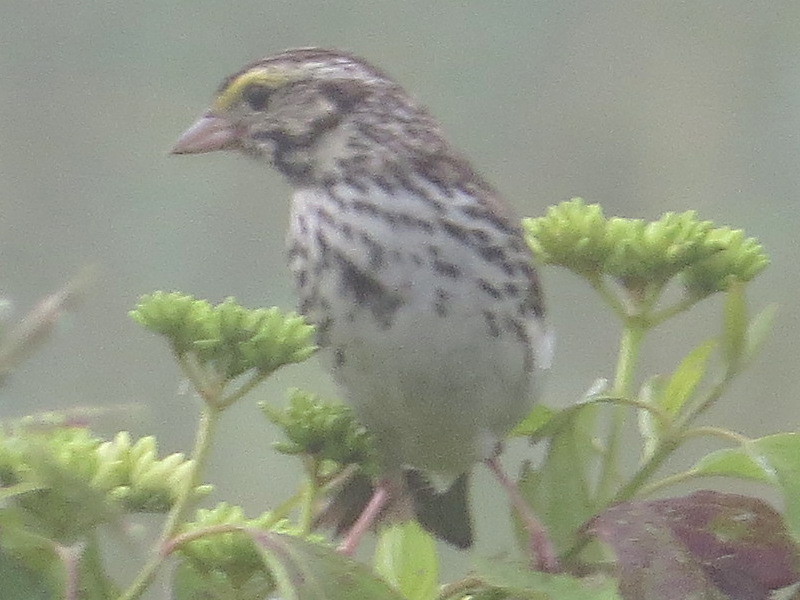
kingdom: Animalia
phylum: Chordata
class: Aves
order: Passeriformes
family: Passerellidae
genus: Passerculus
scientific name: Passerculus sandwichensis
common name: Savannah sparrow
